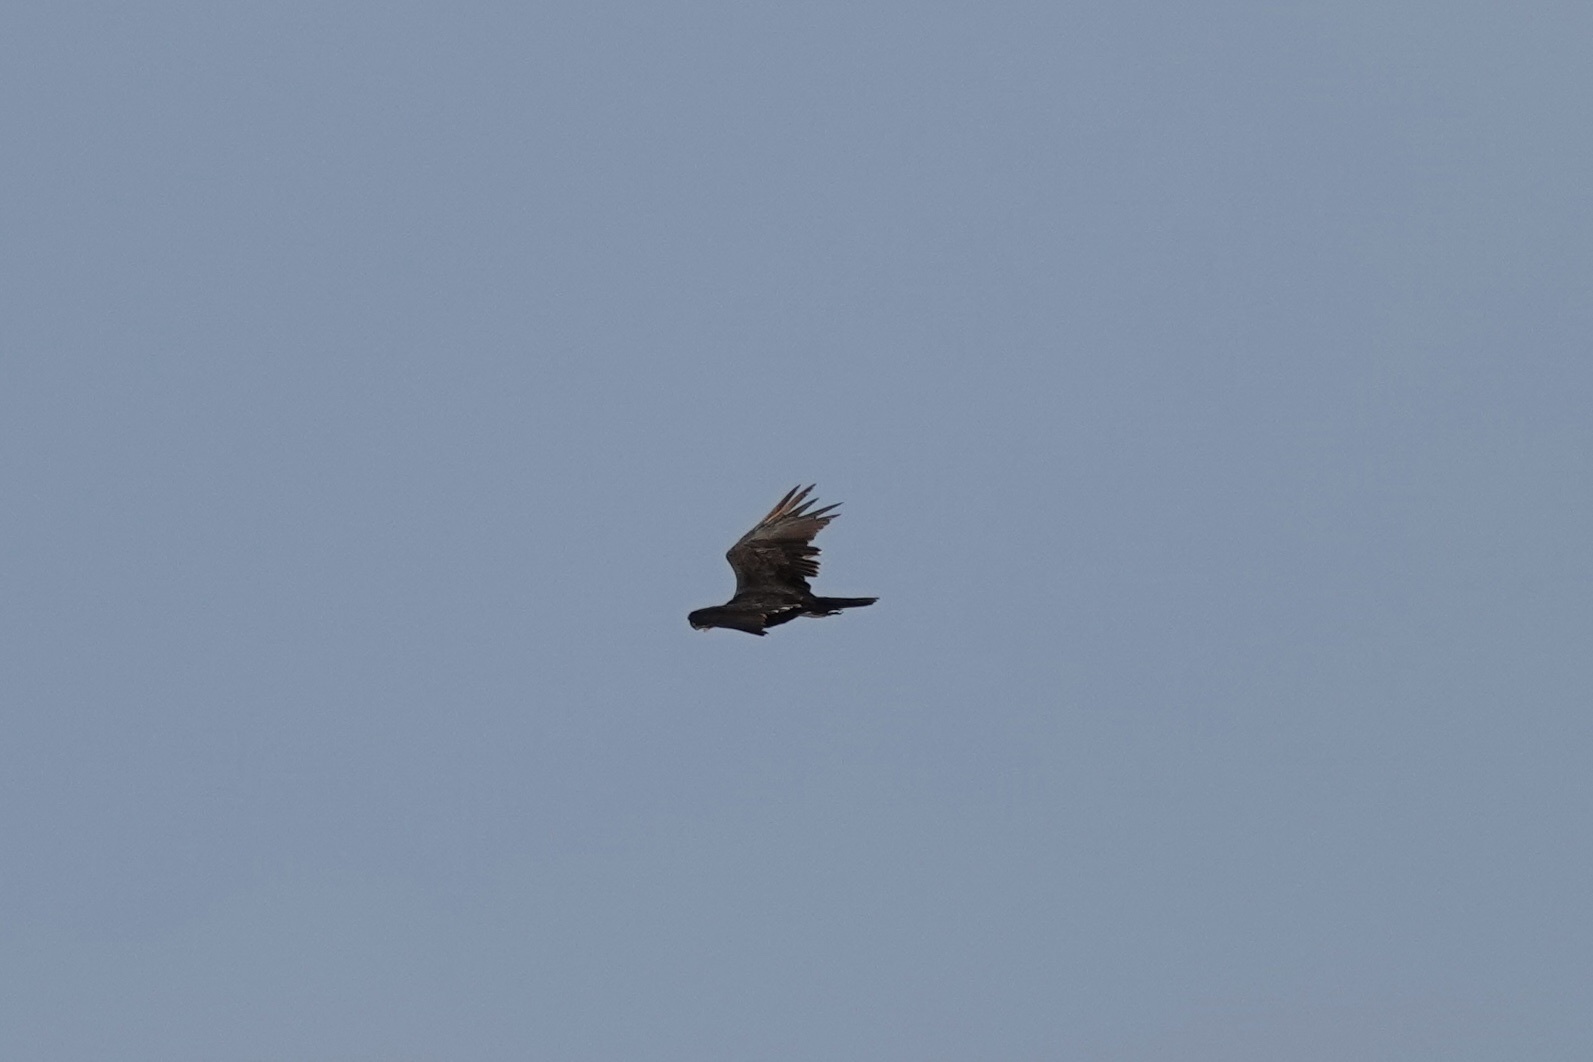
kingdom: Animalia
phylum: Chordata
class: Aves
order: Accipitriformes
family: Cathartidae
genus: Cathartes
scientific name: Cathartes aura
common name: Turkey vulture
